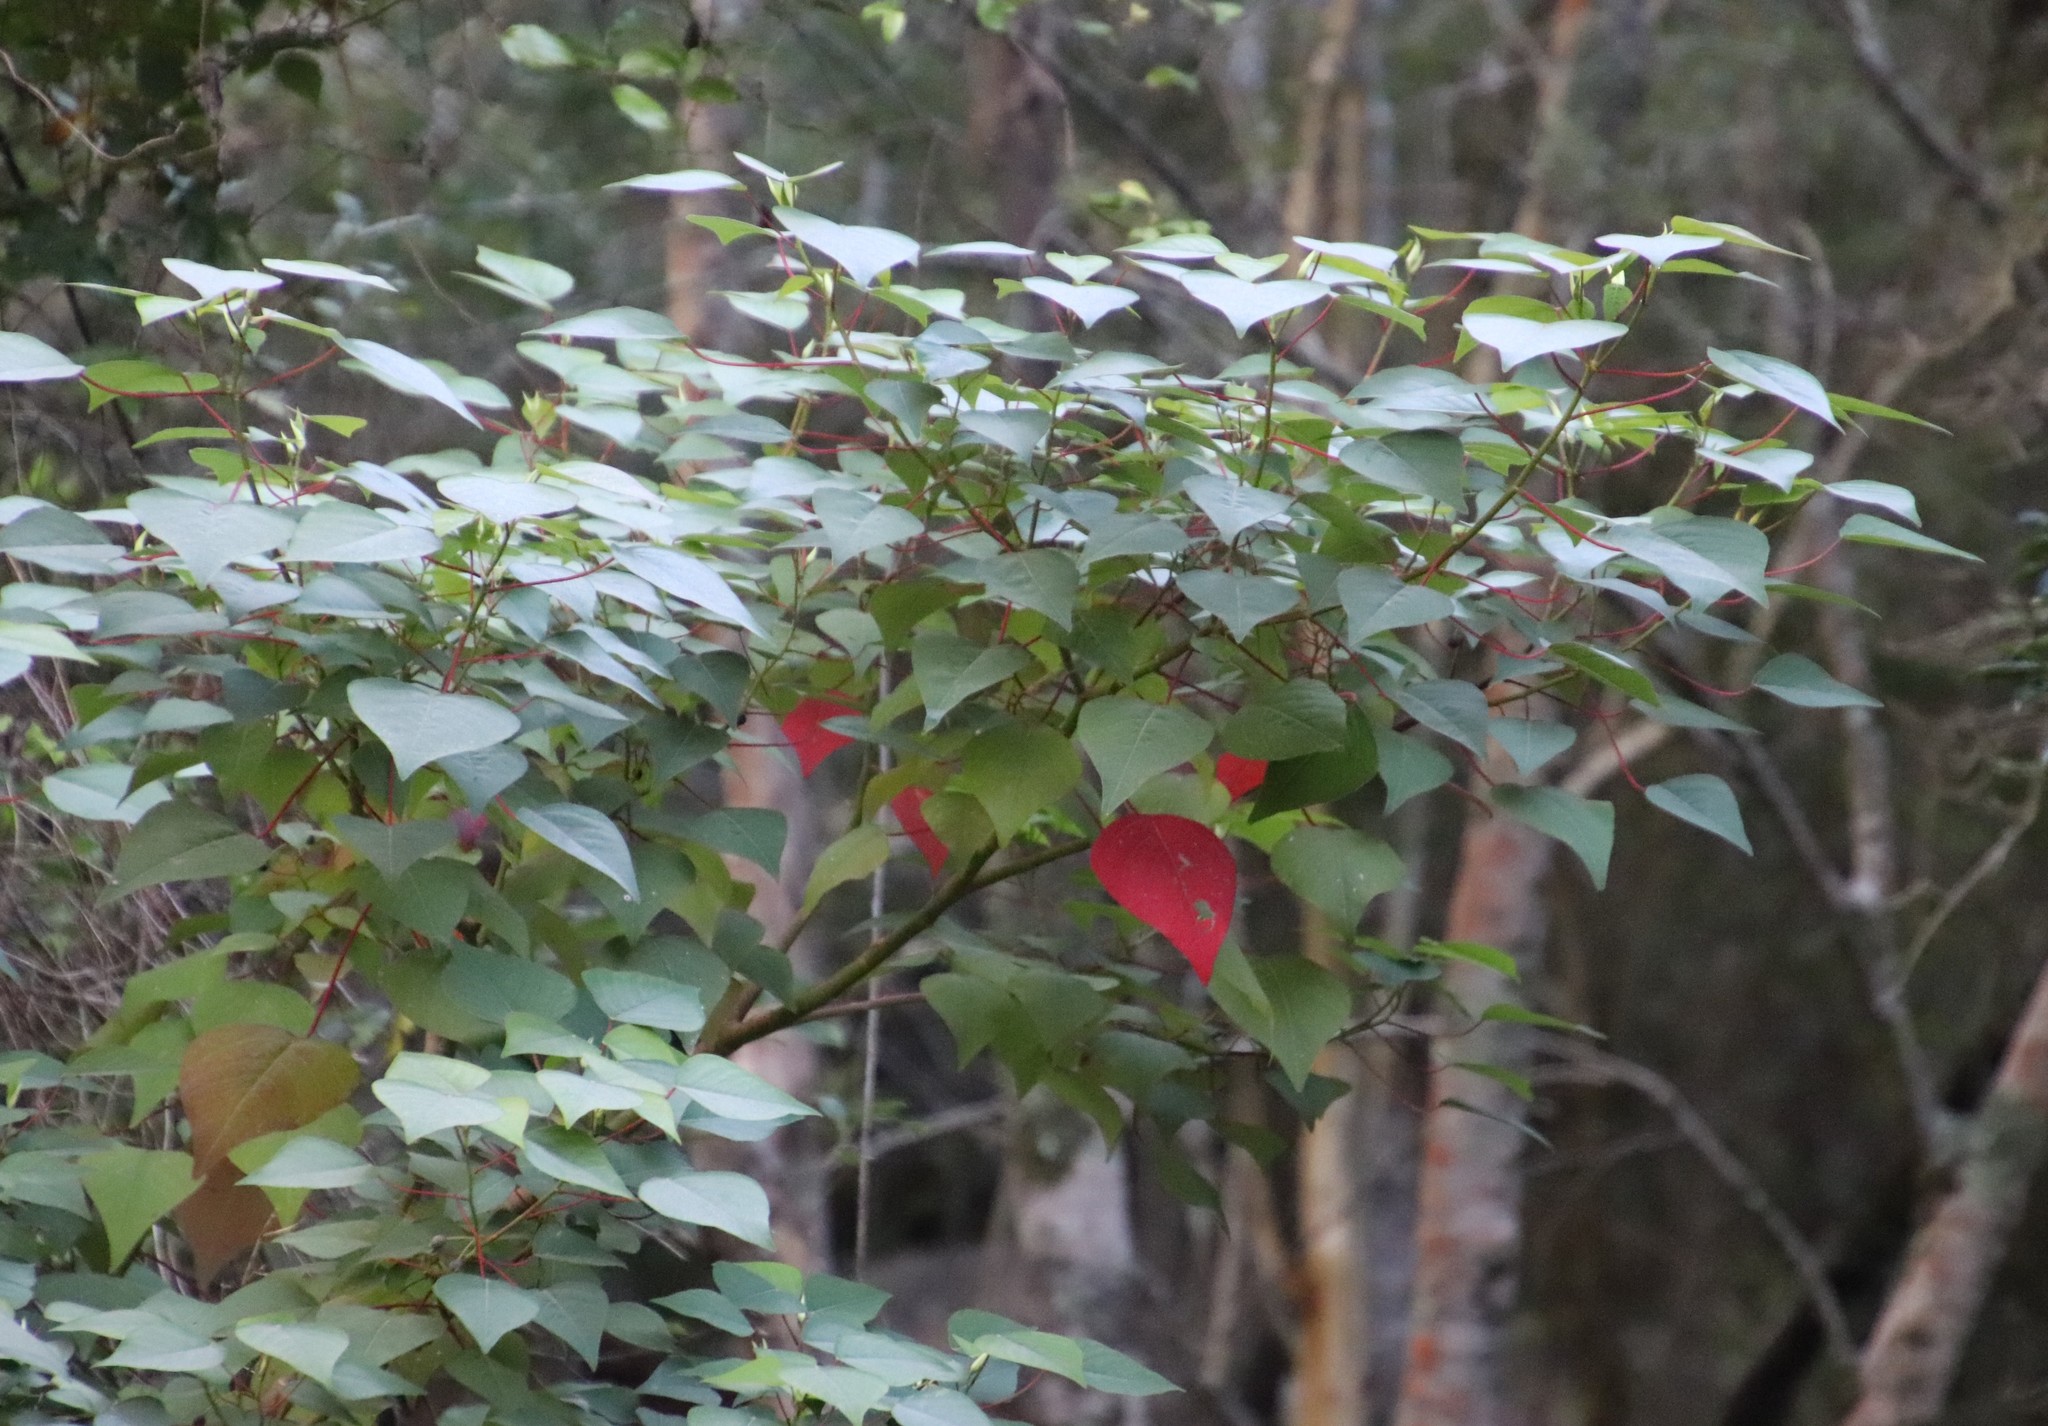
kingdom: Plantae
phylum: Tracheophyta
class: Magnoliopsida
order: Malpighiales
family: Euphorbiaceae
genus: Homalanthus
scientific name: Homalanthus populifolius
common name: Queensland poplar
